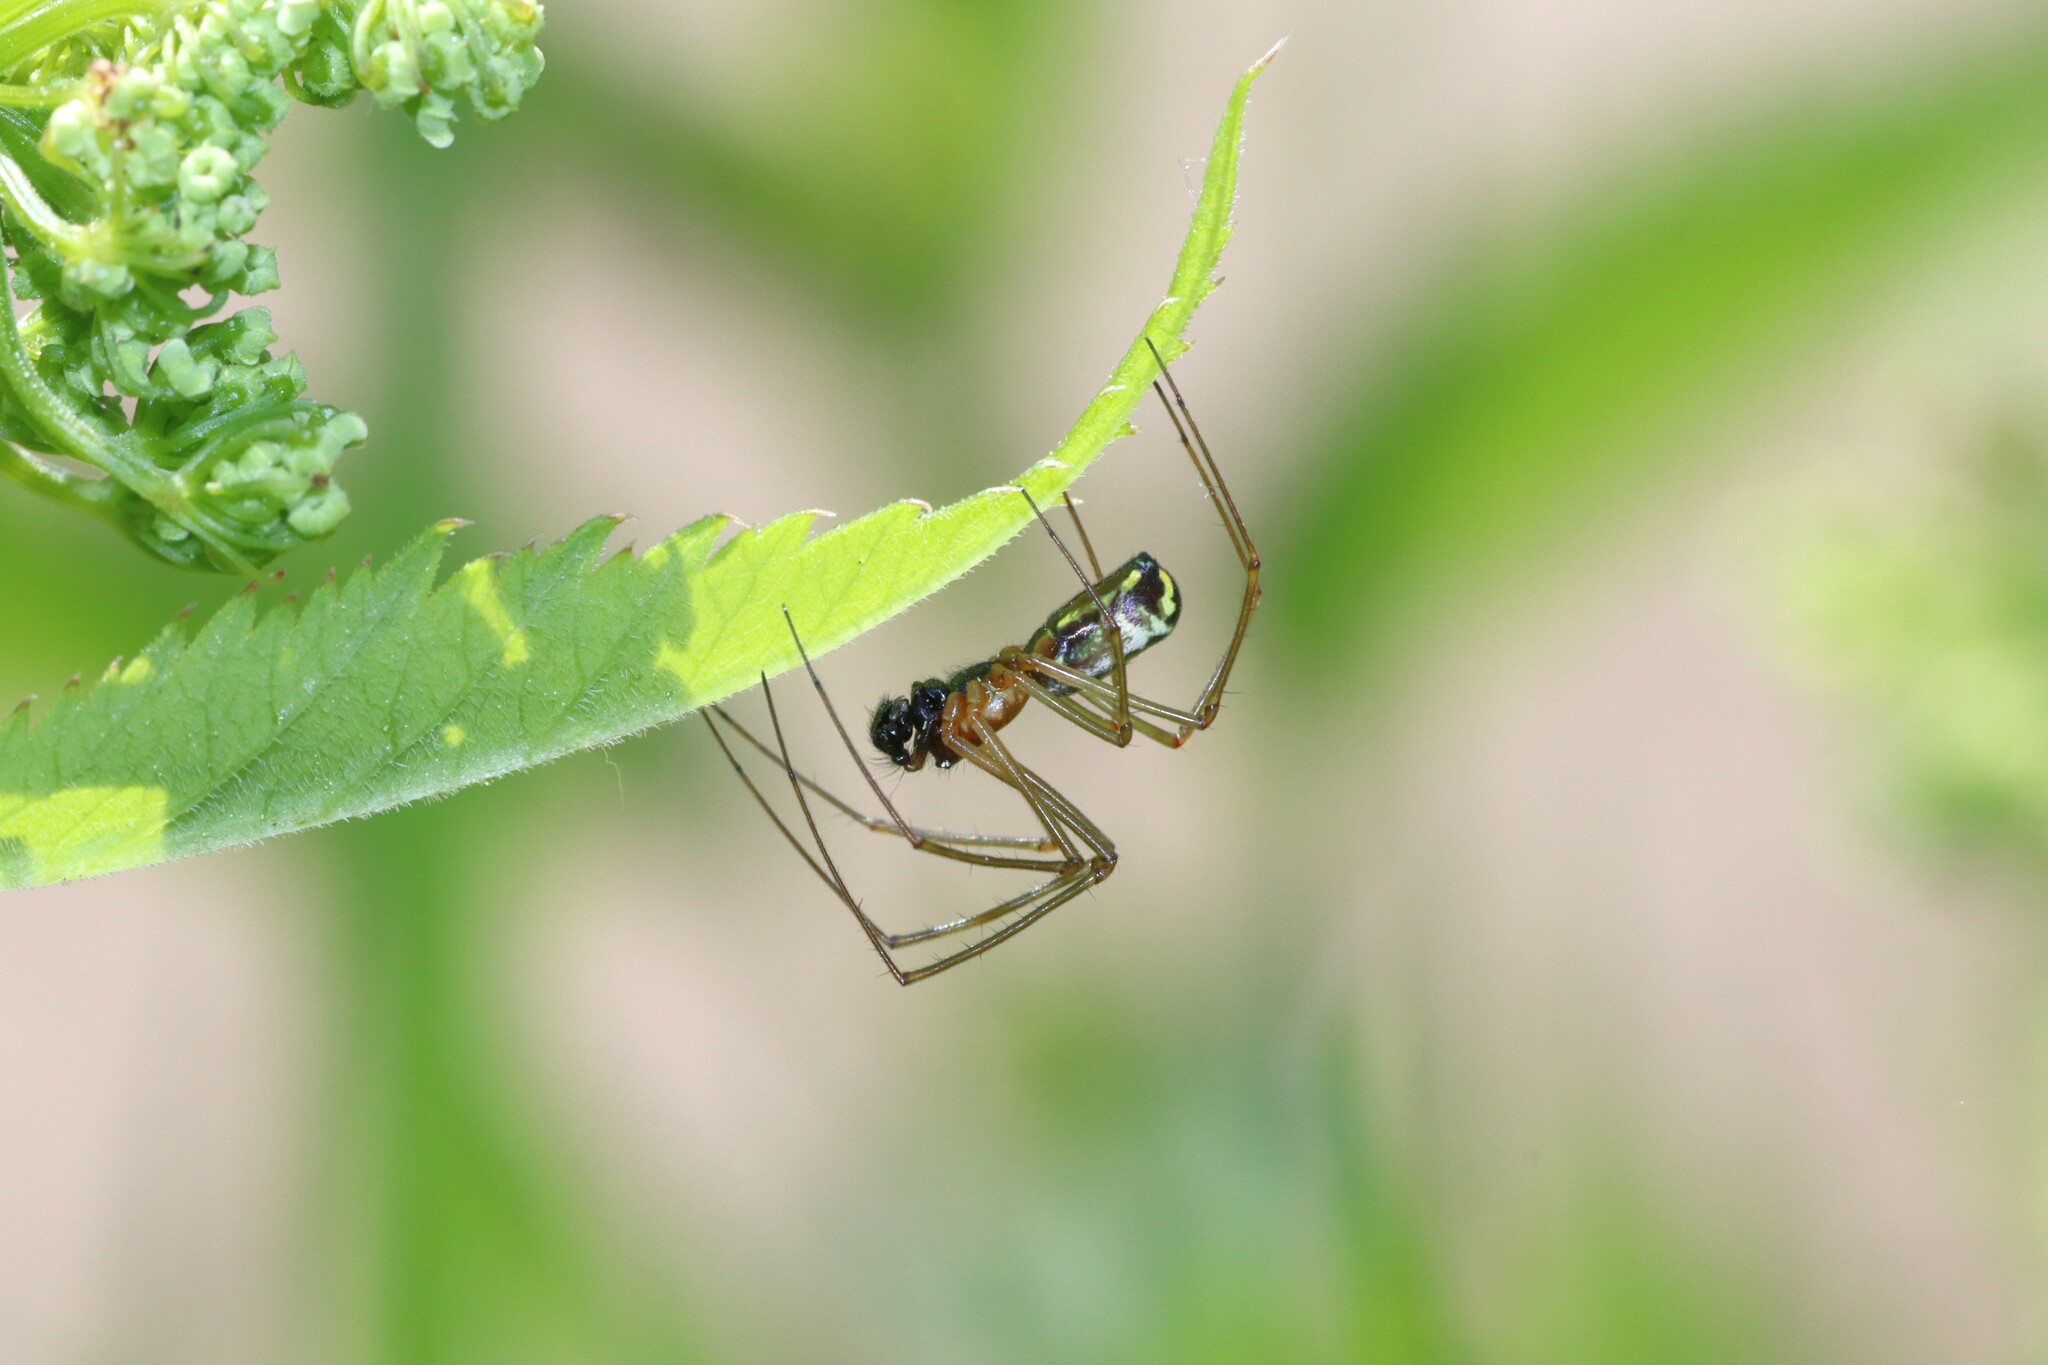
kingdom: Animalia
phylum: Arthropoda
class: Arachnida
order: Araneae
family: Linyphiidae
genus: Neriene
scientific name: Neriene radiata
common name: Filmy dome spider
